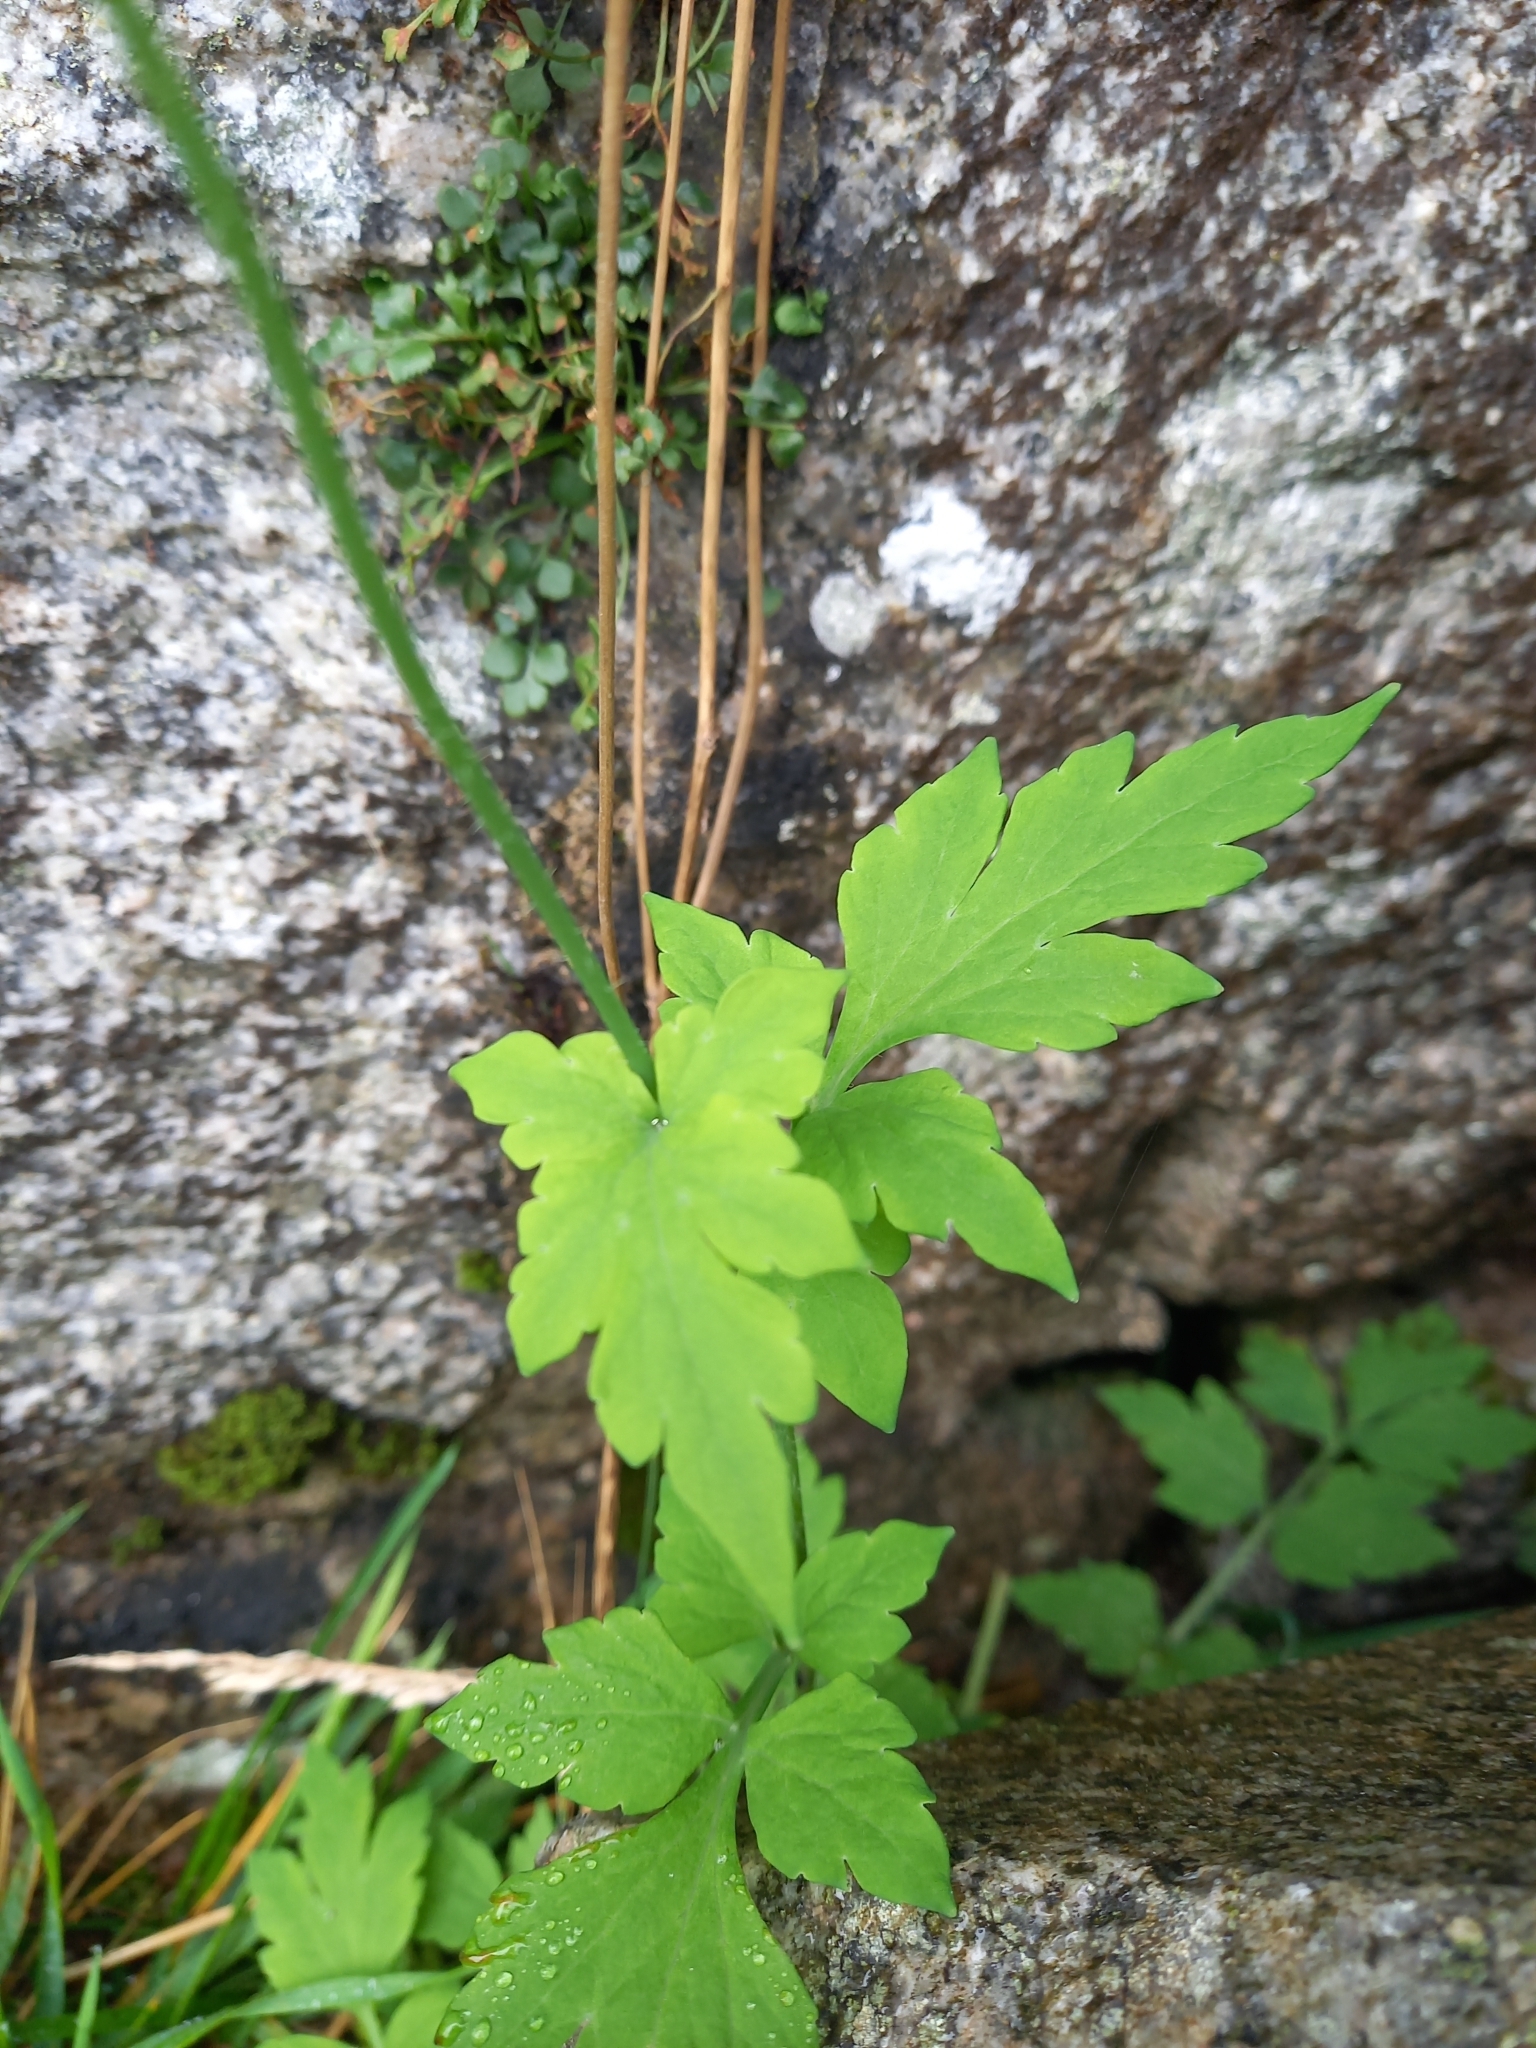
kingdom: Plantae
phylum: Tracheophyta
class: Magnoliopsida
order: Ranunculales
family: Papaveraceae
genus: Papaver
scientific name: Papaver cambricum
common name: Poppy
